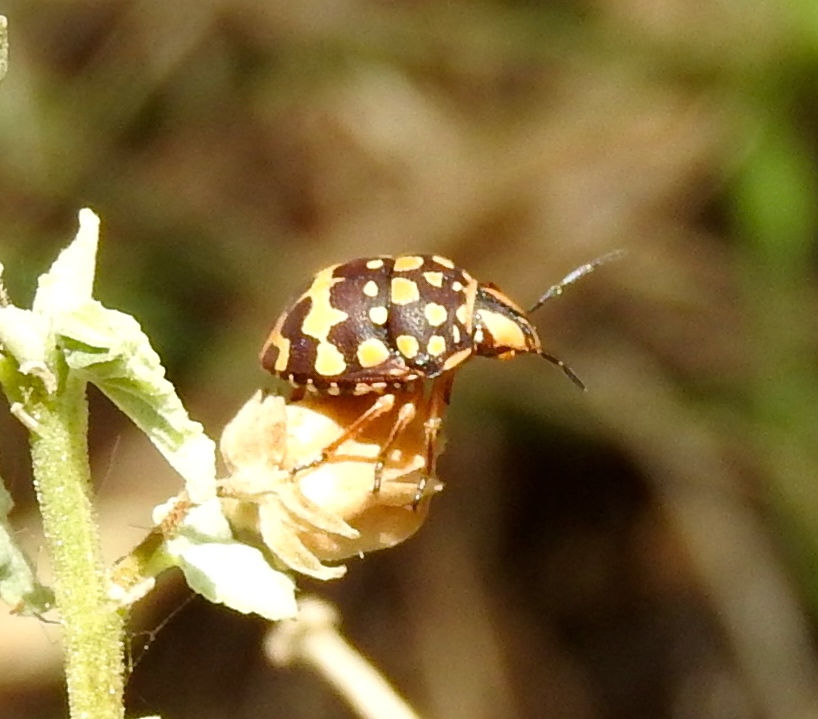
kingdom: Animalia
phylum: Arthropoda
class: Insecta
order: Hemiptera
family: Scutelleridae
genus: Orsilochides
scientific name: Orsilochides
